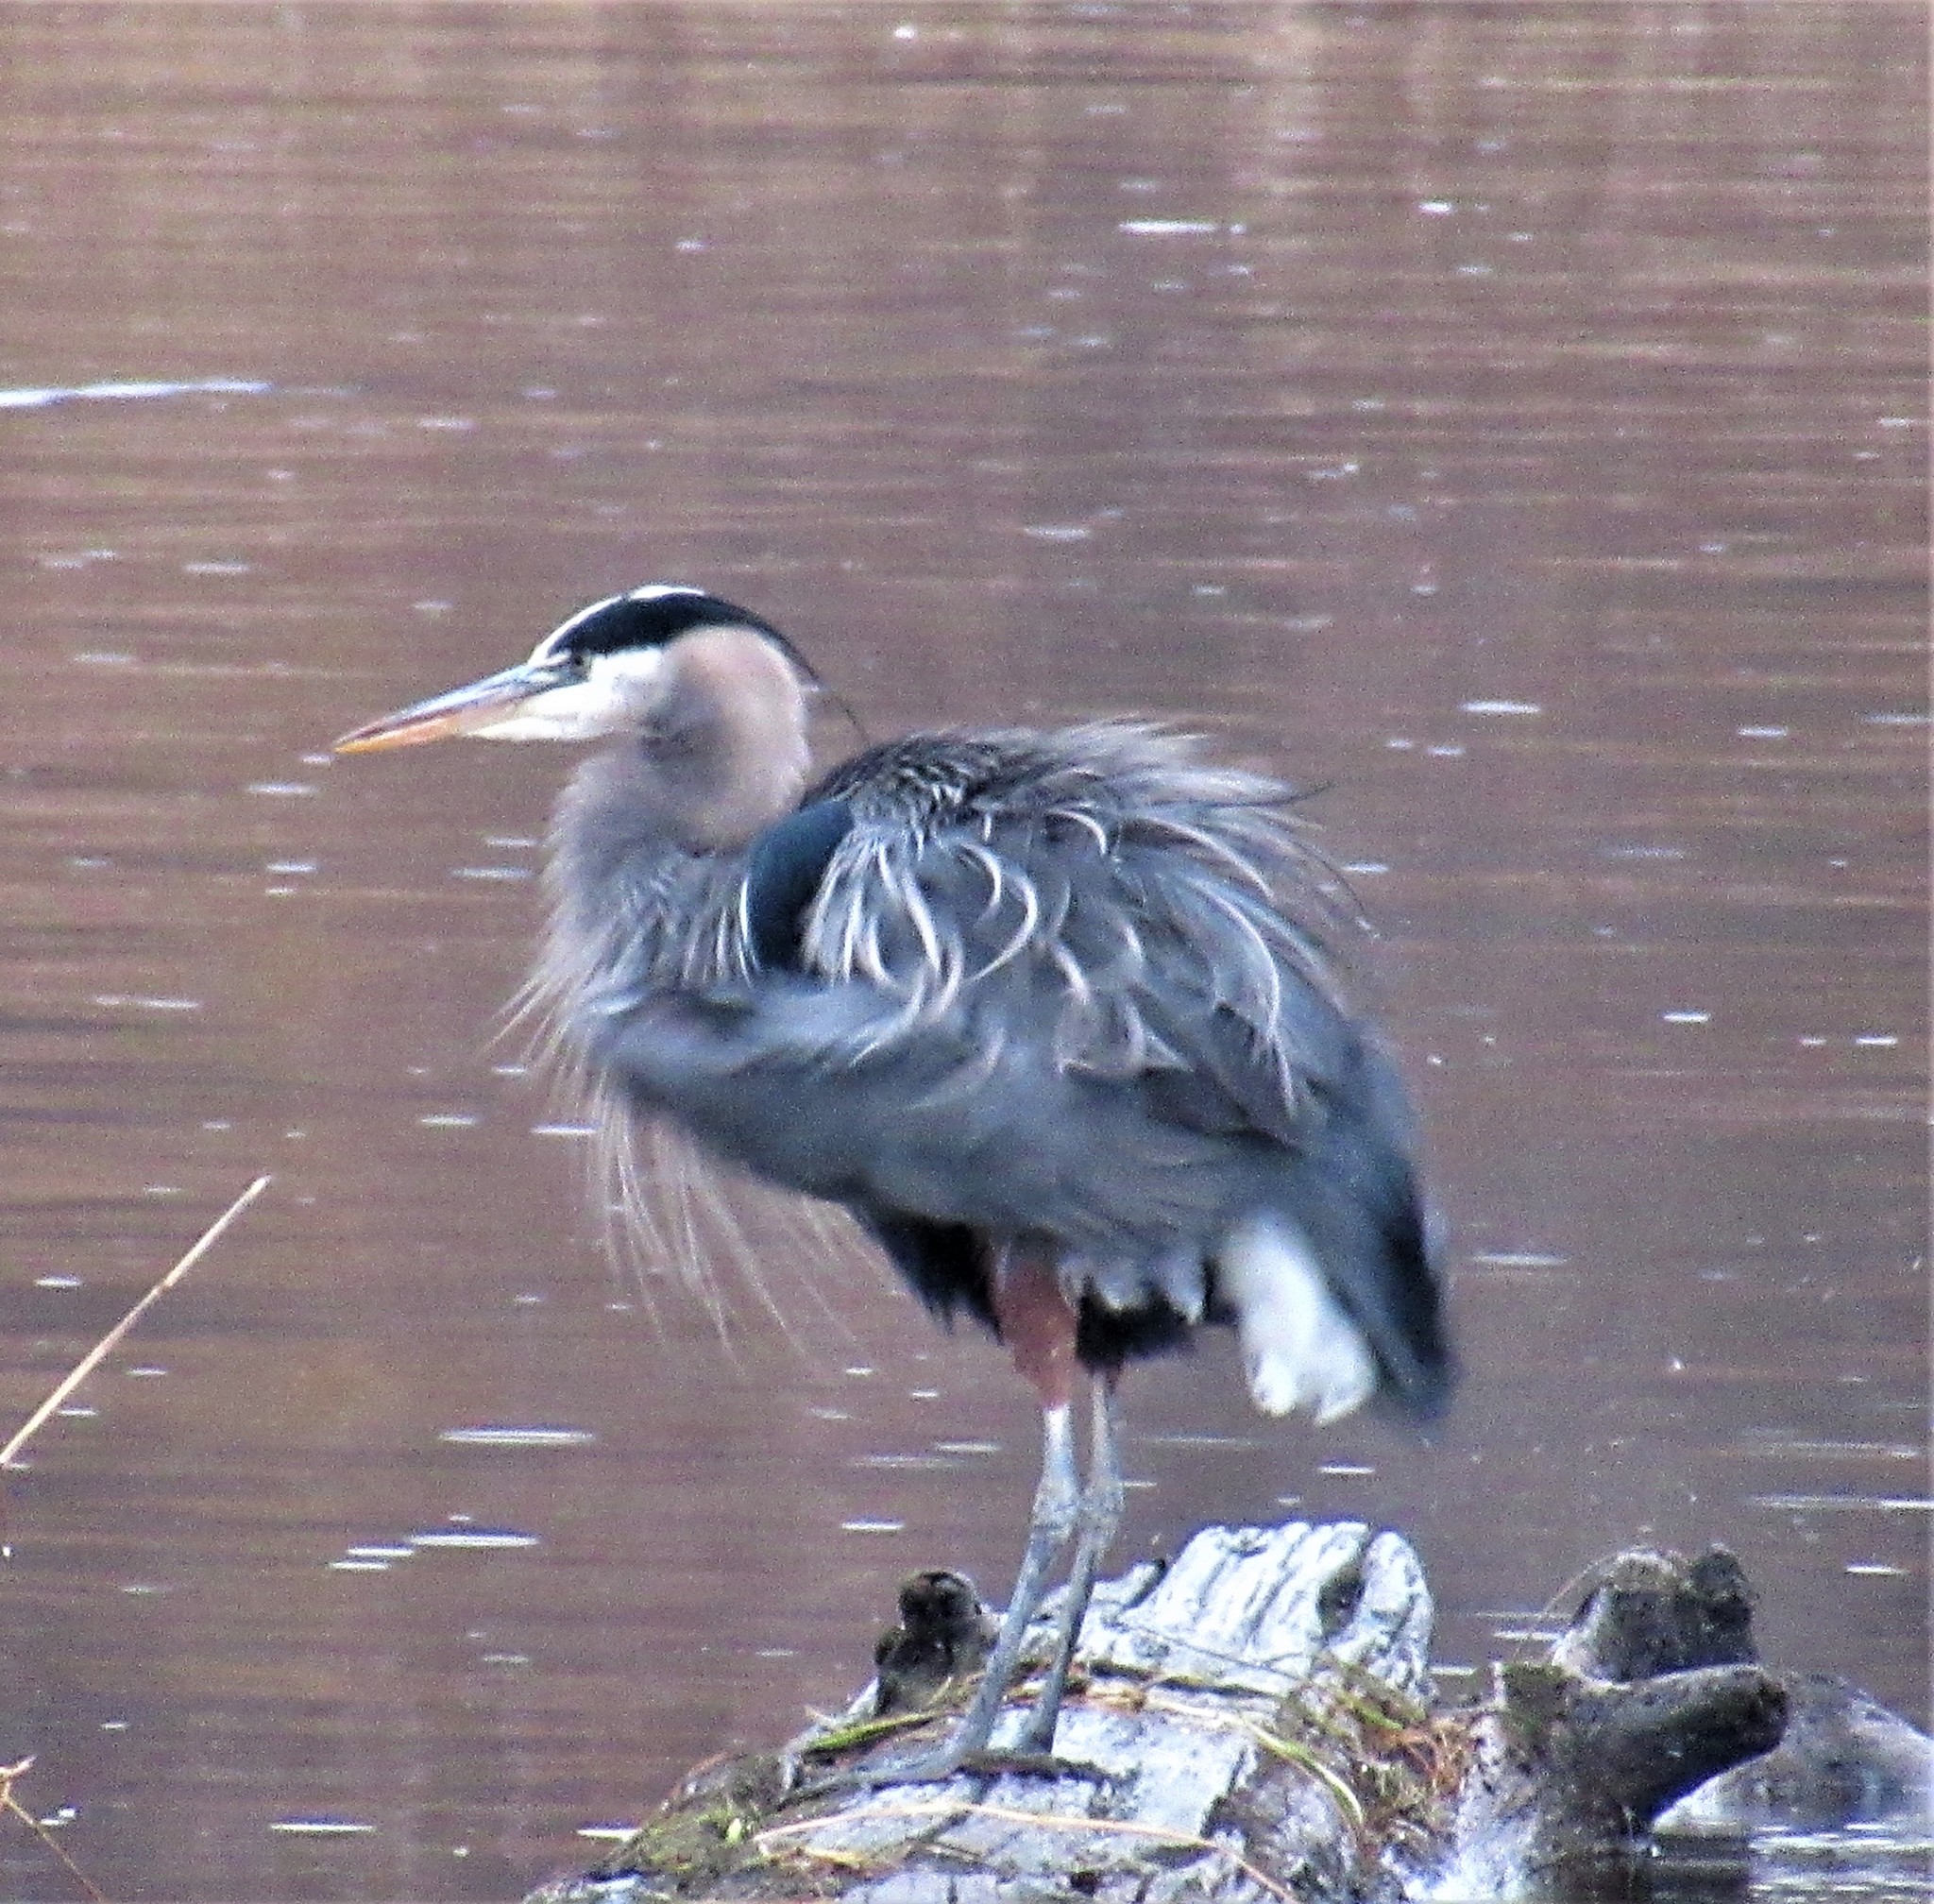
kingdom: Animalia
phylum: Chordata
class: Aves
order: Pelecaniformes
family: Ardeidae
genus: Ardea
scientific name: Ardea herodias
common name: Great blue heron
